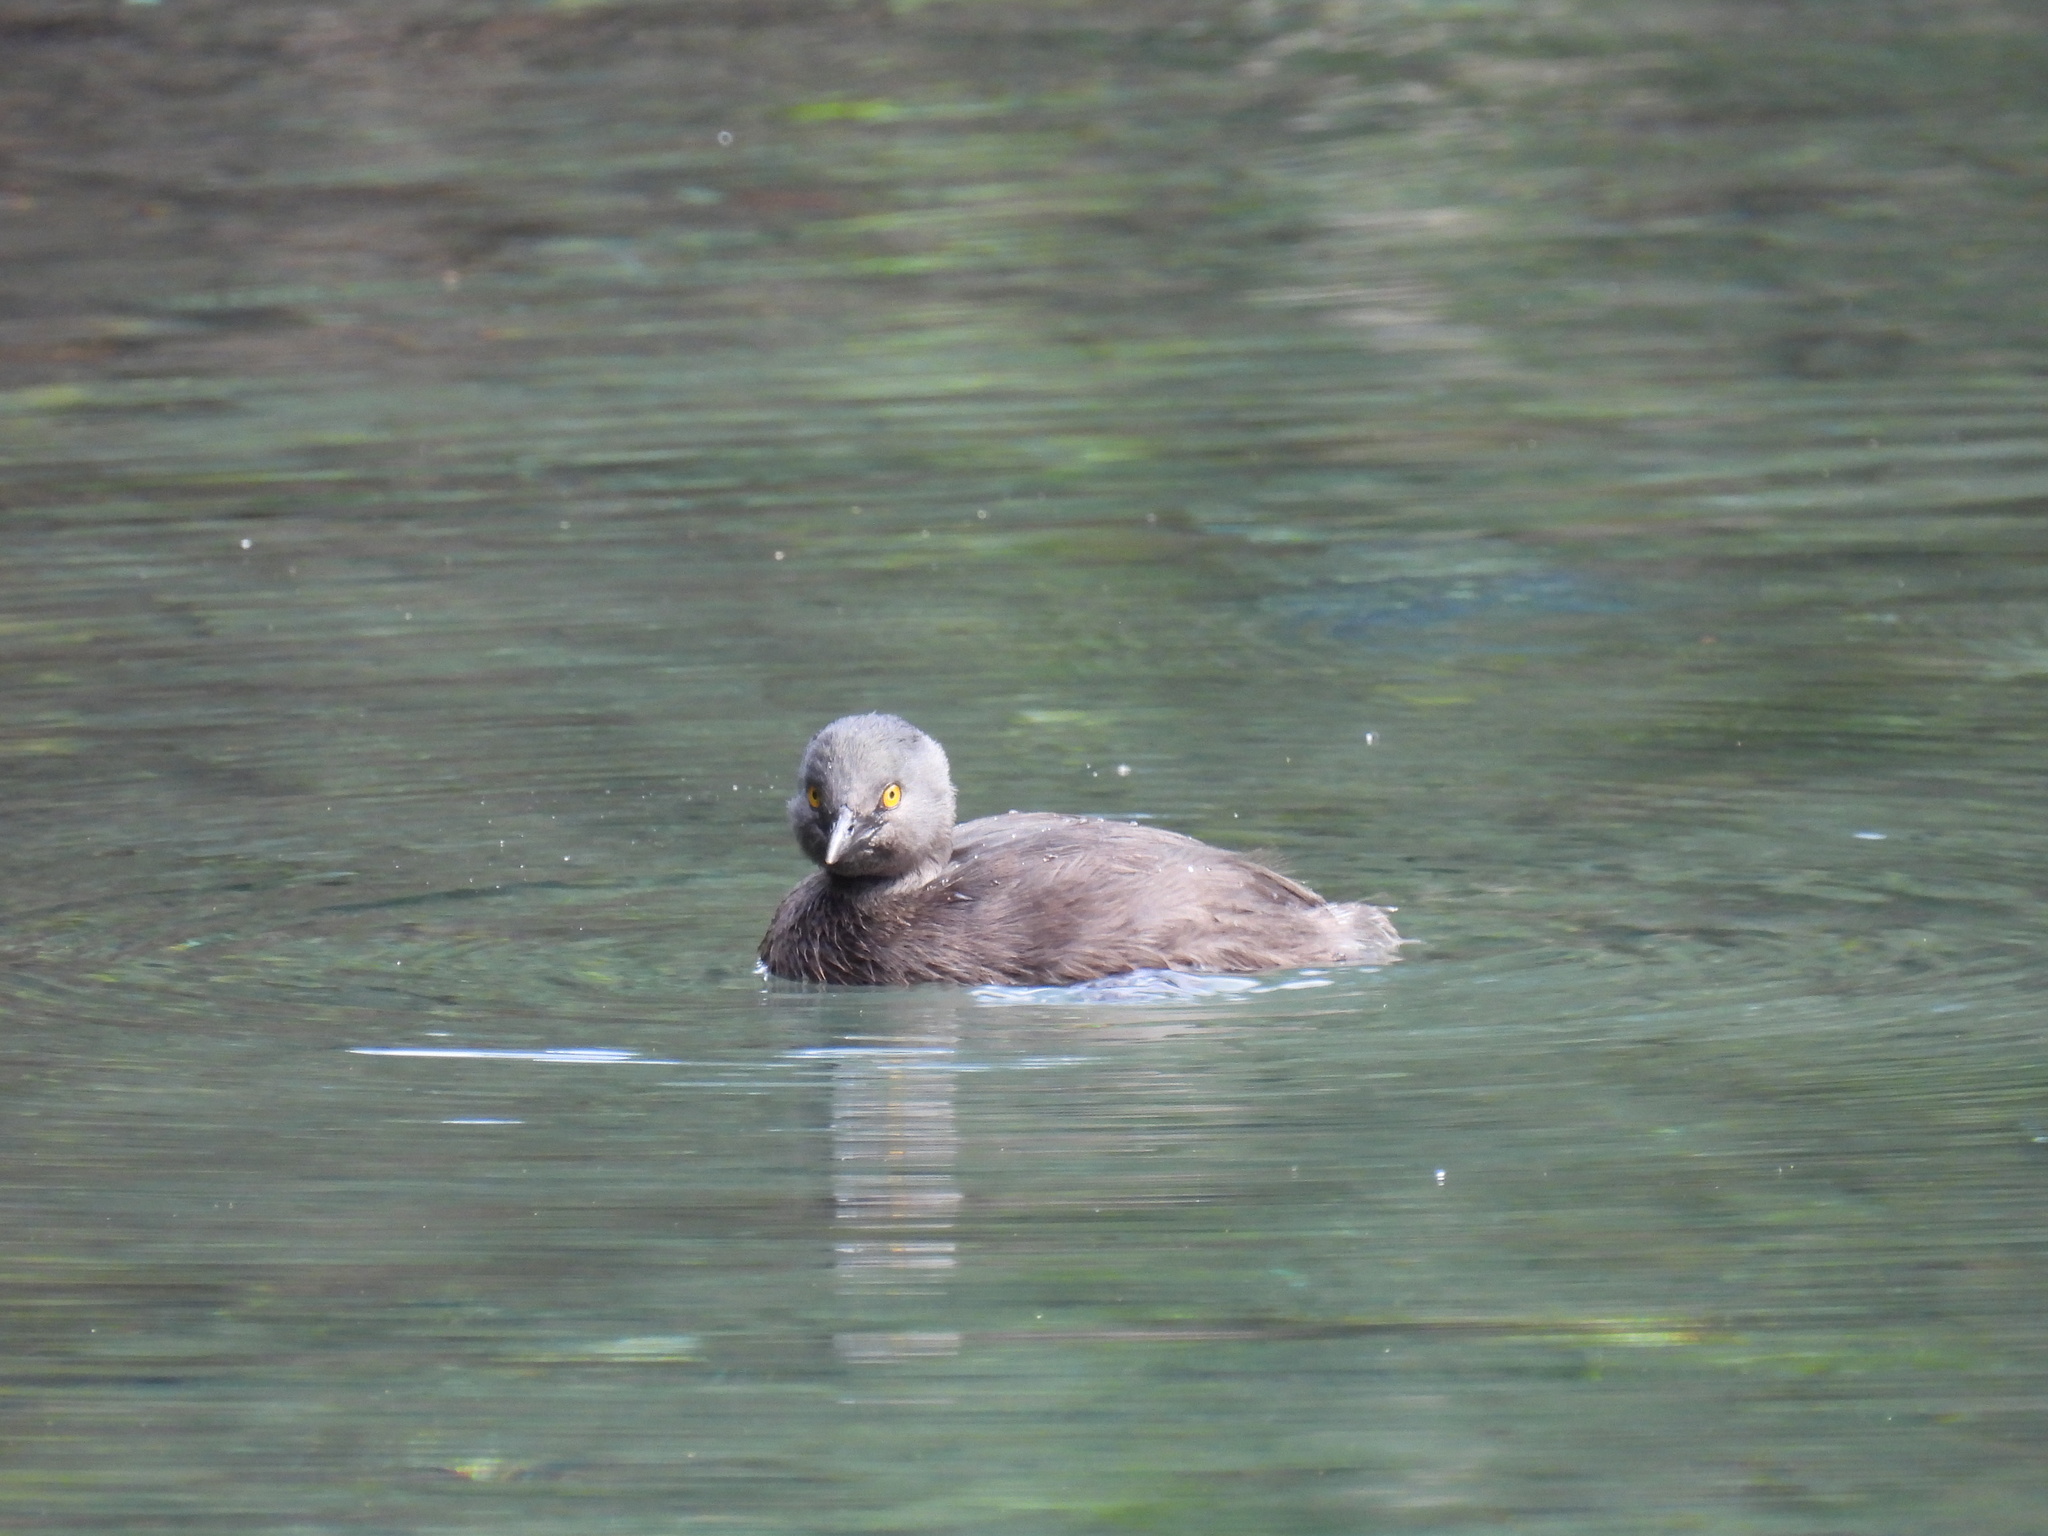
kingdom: Animalia
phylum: Chordata
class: Aves
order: Podicipediformes
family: Podicipedidae
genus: Tachybaptus
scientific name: Tachybaptus dominicus
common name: Least grebe
